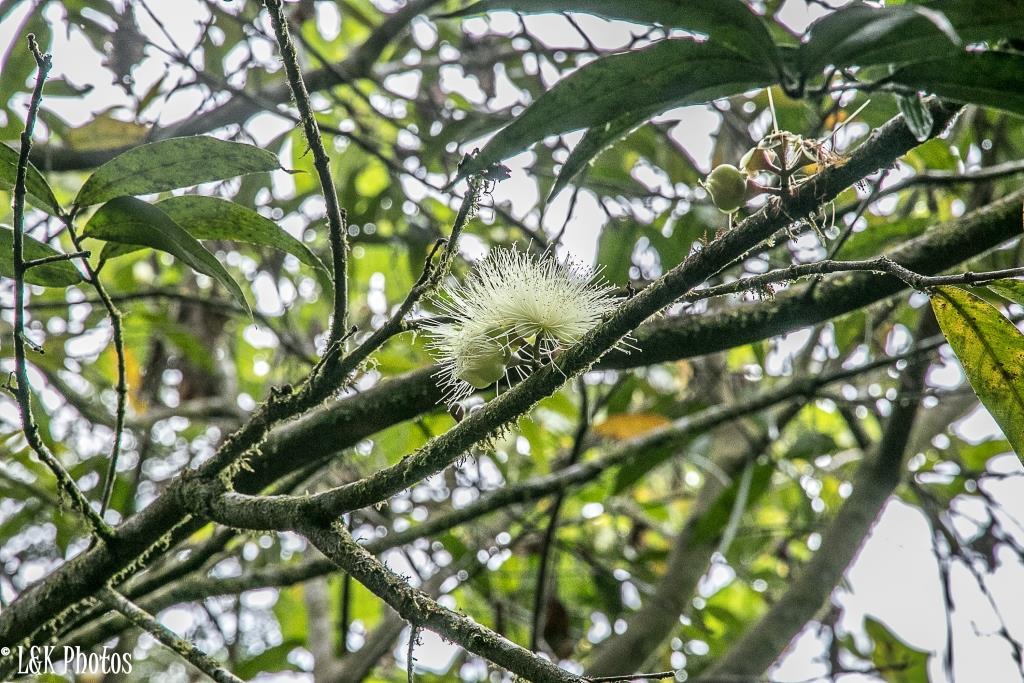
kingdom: Plantae
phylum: Tracheophyta
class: Magnoliopsida
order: Myrtales
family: Myrtaceae
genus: Syzygium
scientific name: Syzygium jambos
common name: Malabar plum
